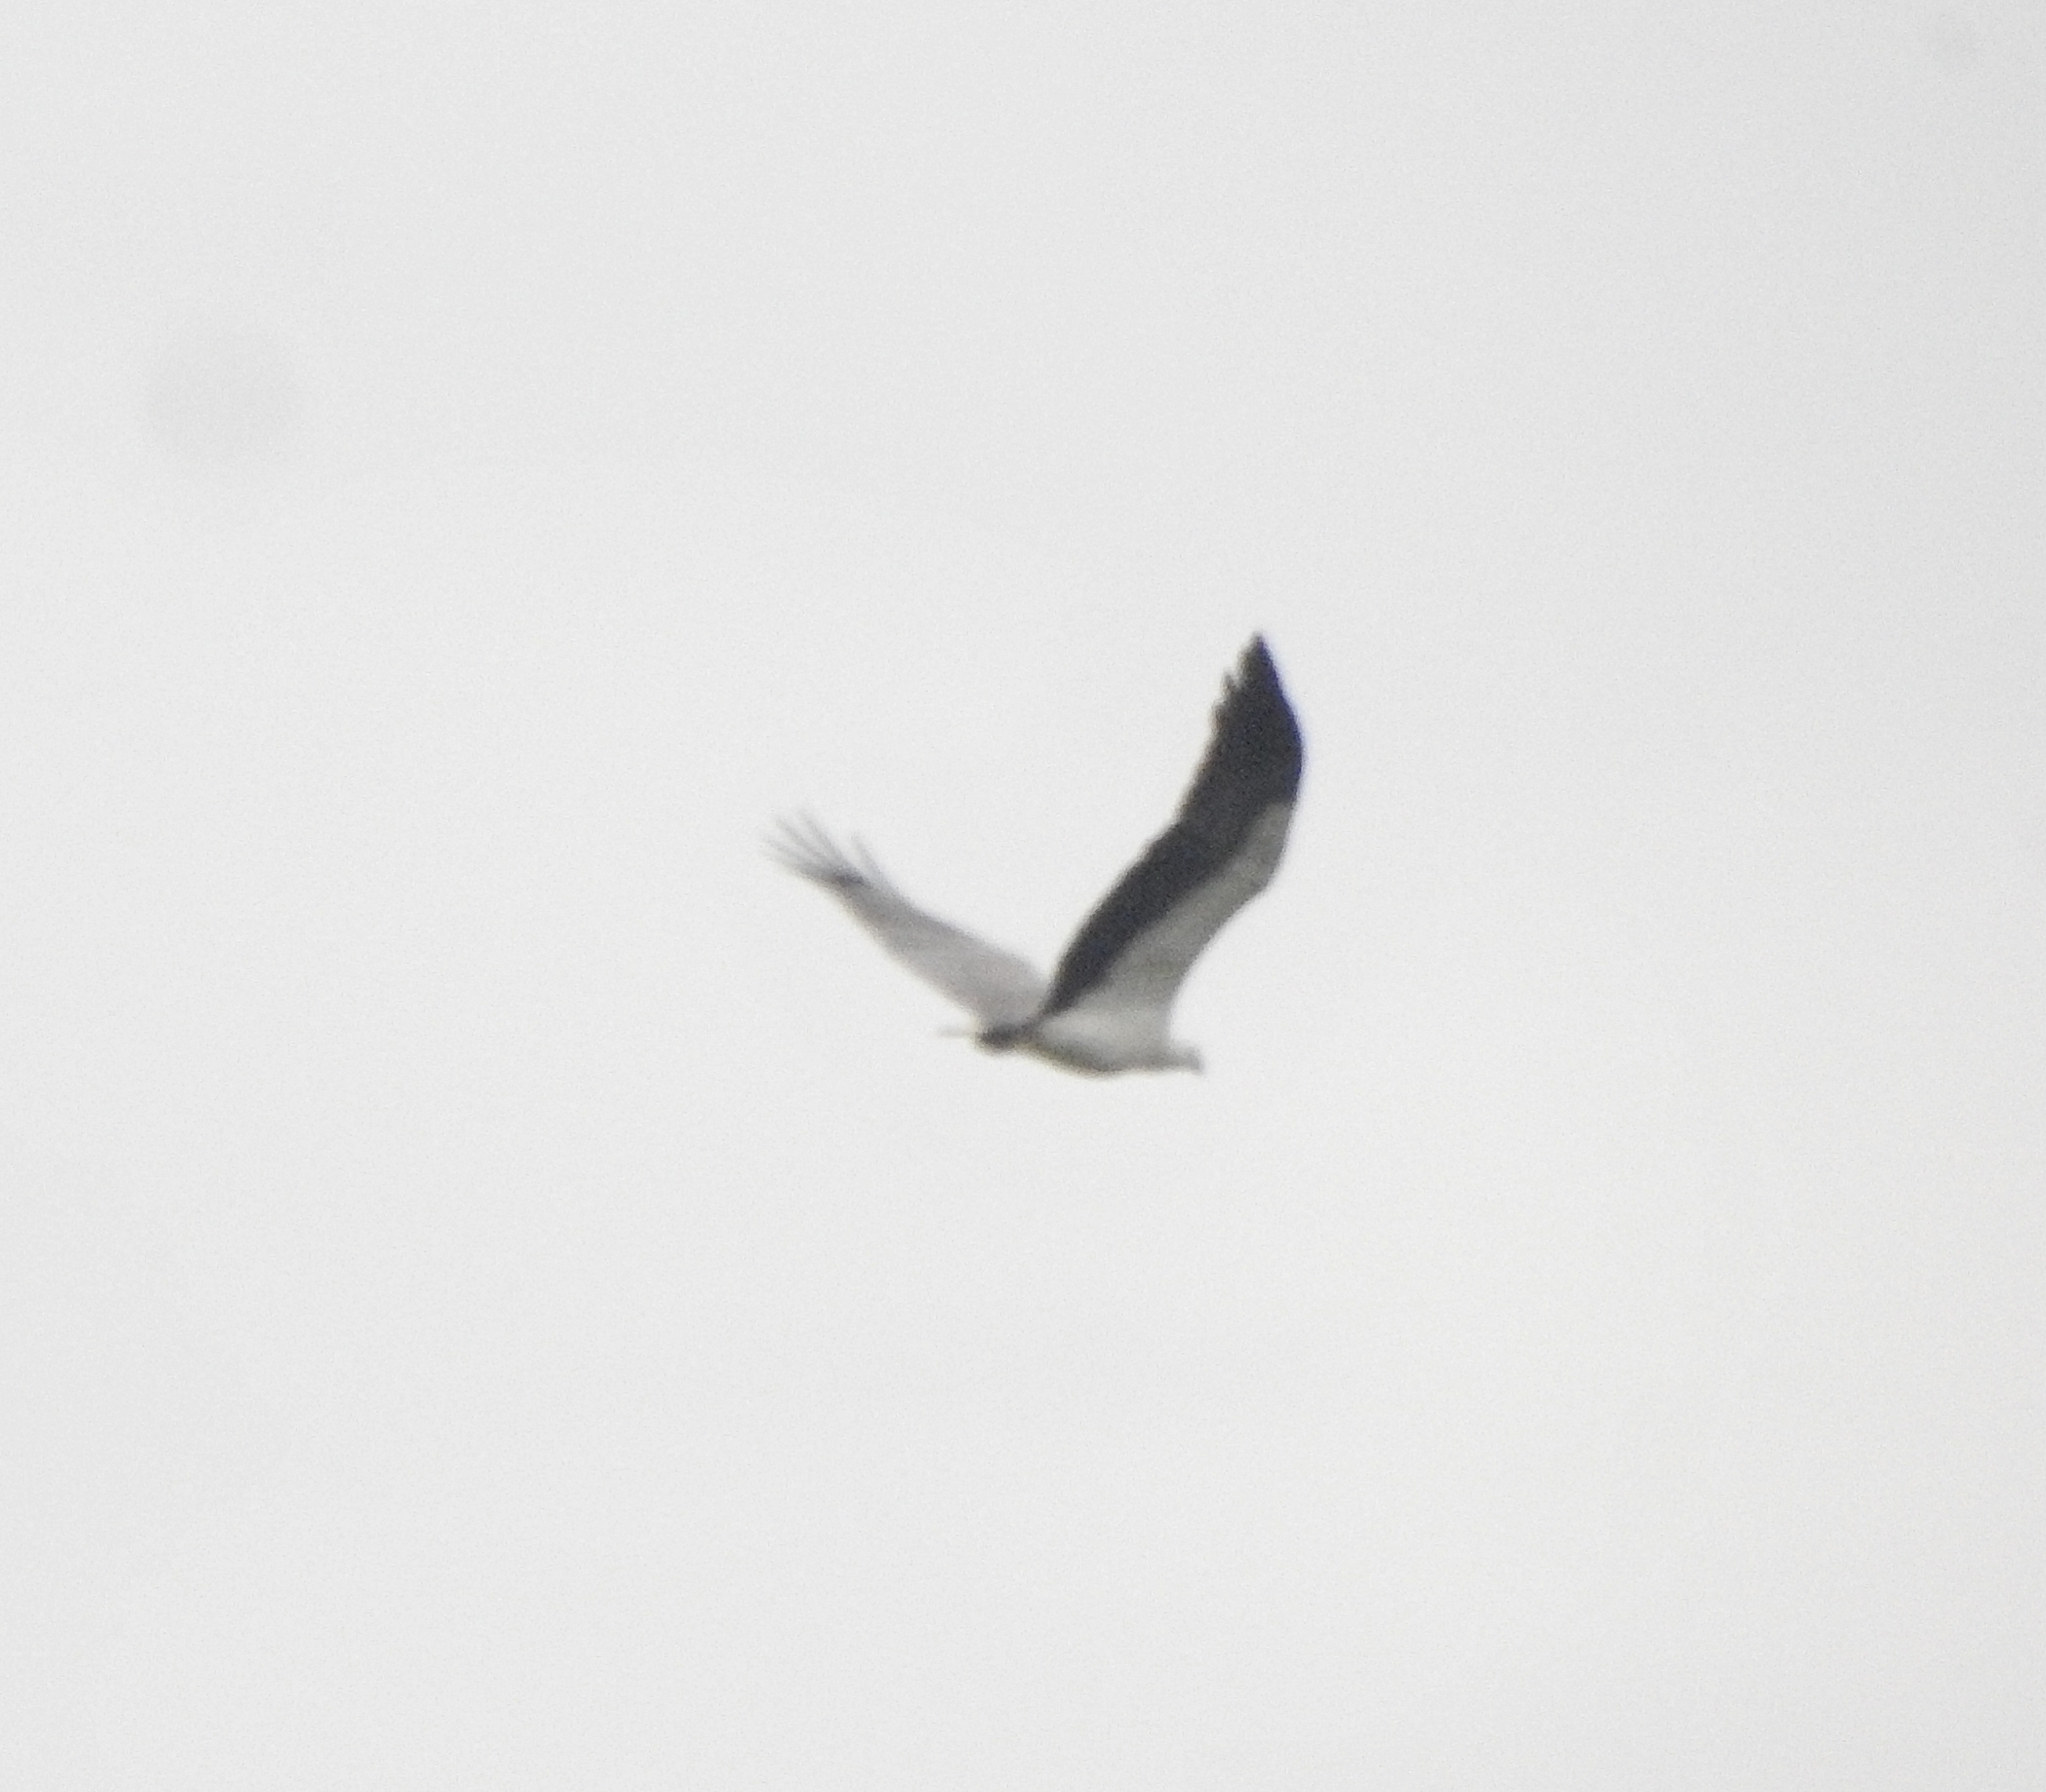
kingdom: Animalia
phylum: Chordata
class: Aves
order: Accipitriformes
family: Accipitridae
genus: Haliaeetus
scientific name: Haliaeetus leucogaster
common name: White-bellied sea eagle
